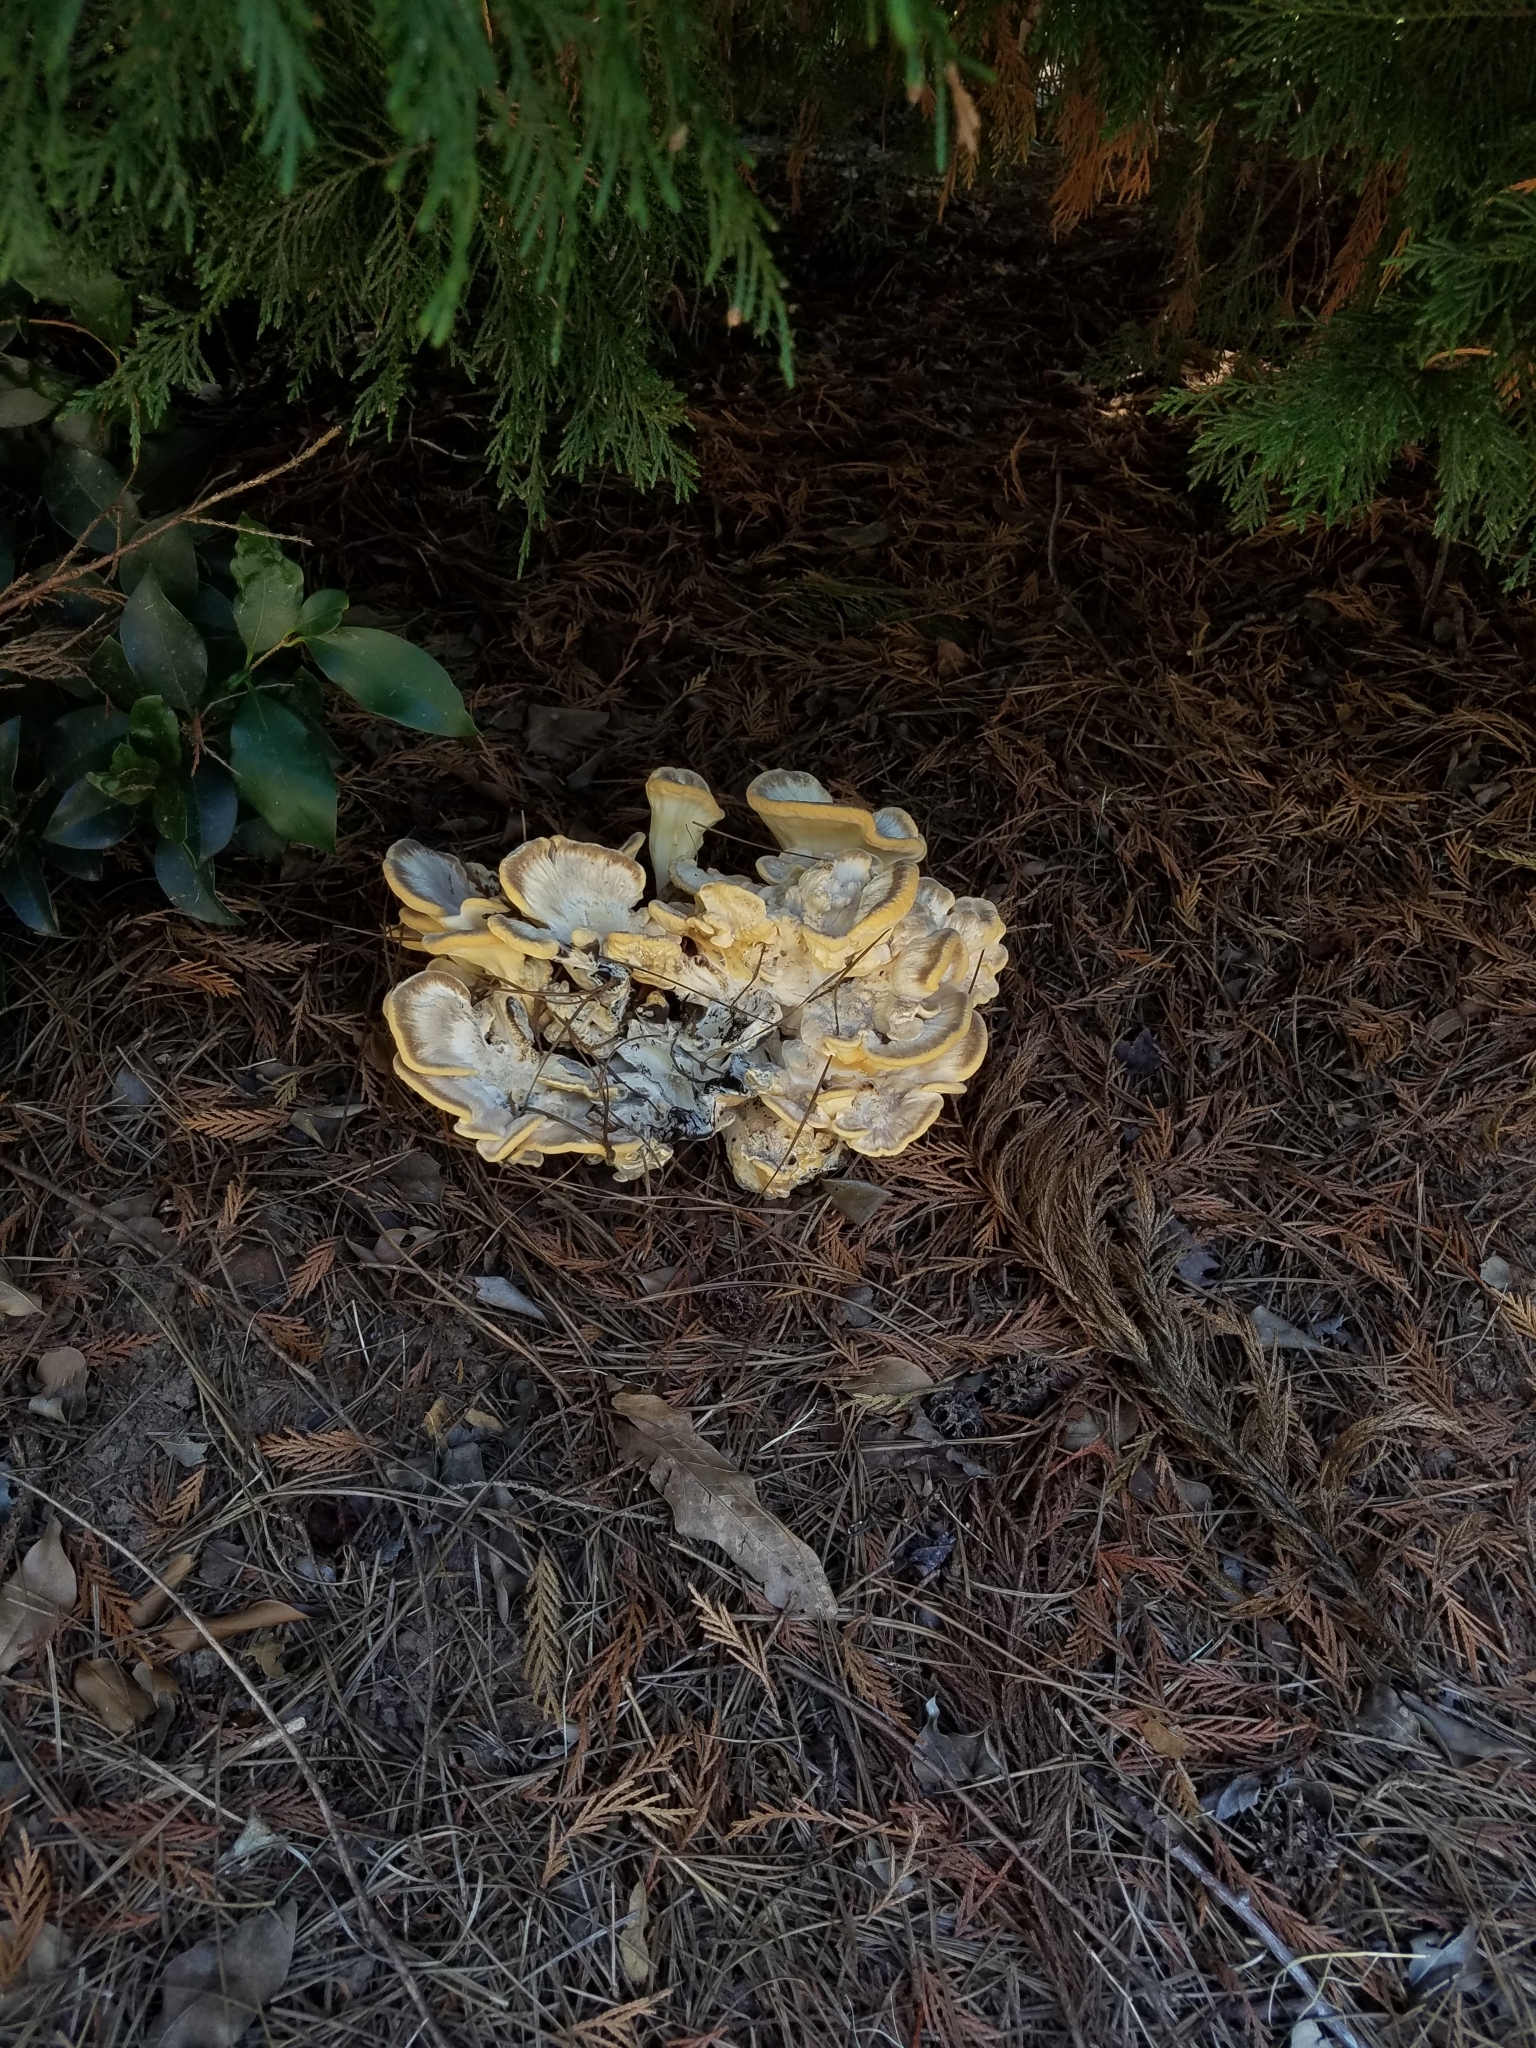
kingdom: Fungi
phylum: Basidiomycota
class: Agaricomycetes
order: Polyporales
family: Meripilaceae
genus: Meripilus
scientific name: Meripilus sumstinei
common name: Black-staining polypore
